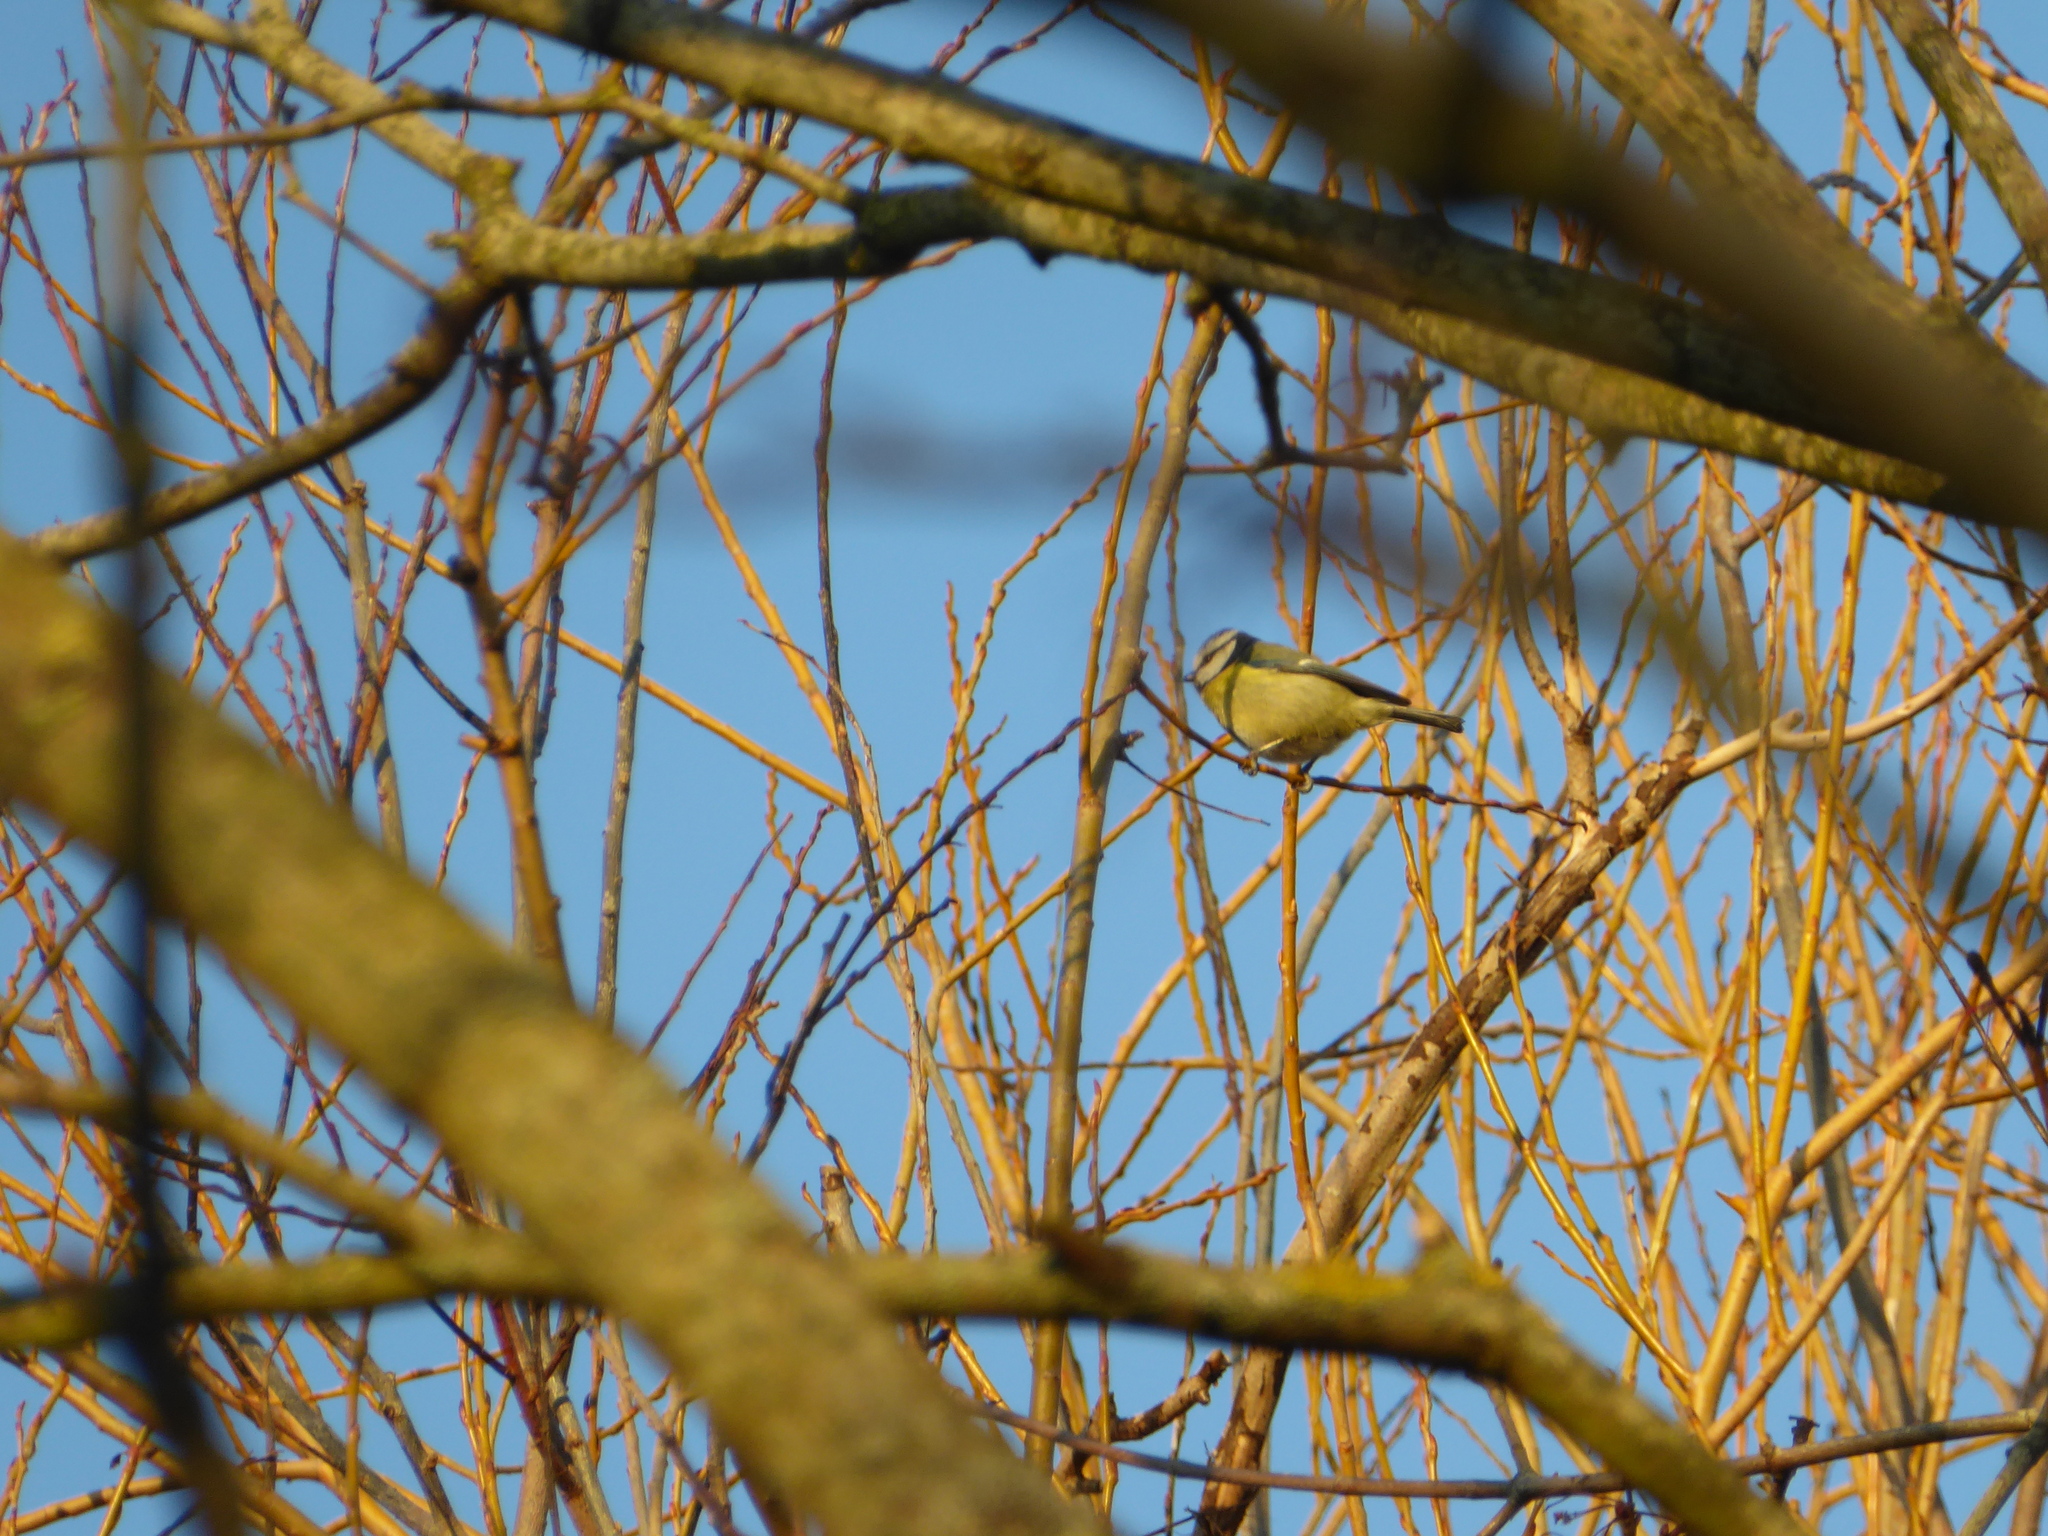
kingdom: Animalia
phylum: Chordata
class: Aves
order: Passeriformes
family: Paridae
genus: Cyanistes
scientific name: Cyanistes caeruleus
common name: Eurasian blue tit
